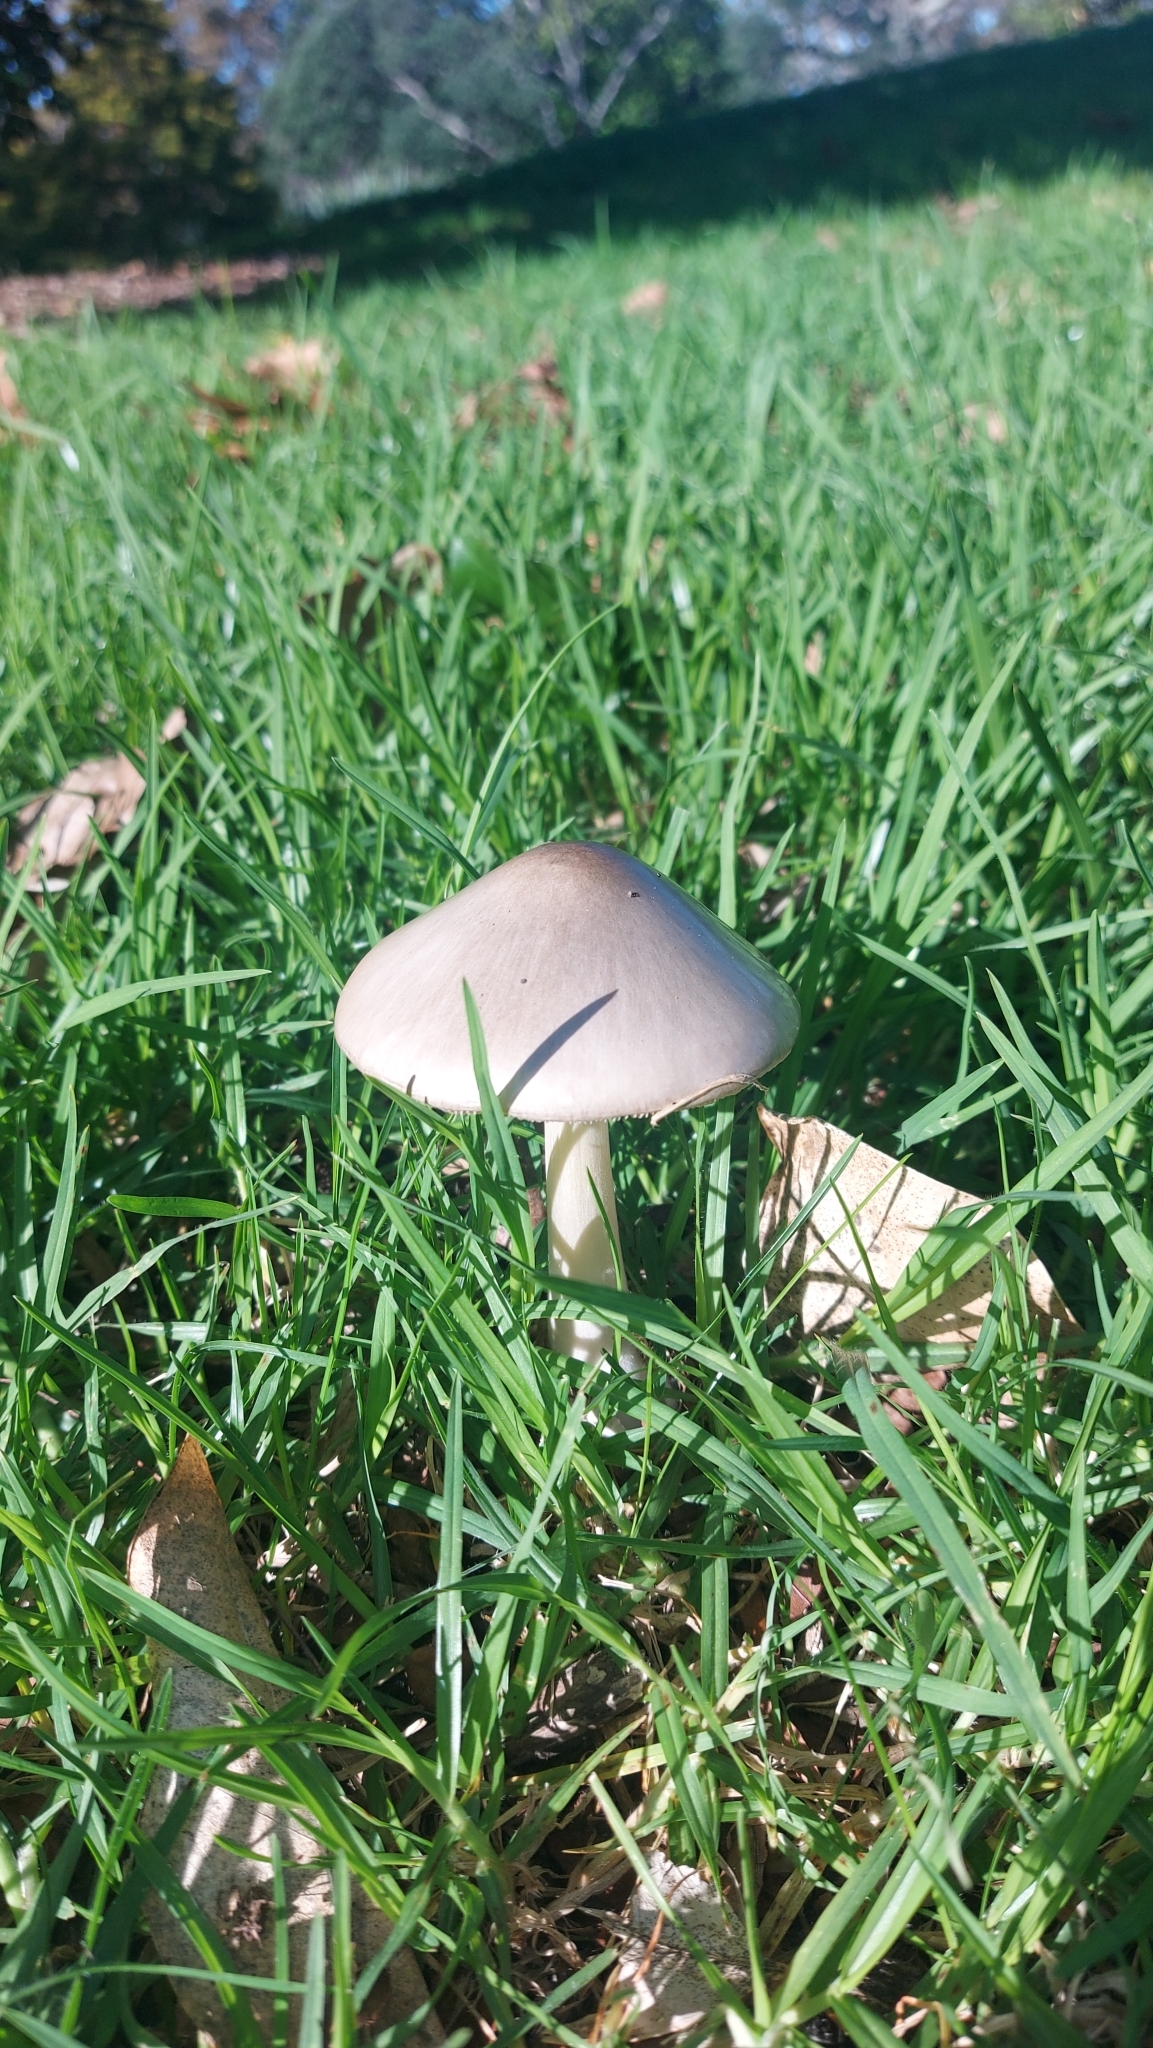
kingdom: Fungi
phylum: Basidiomycota
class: Agaricomycetes
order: Agaricales
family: Pluteaceae
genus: Volvopluteus
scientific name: Volvopluteus gloiocephalus
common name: Stubble rosegill
